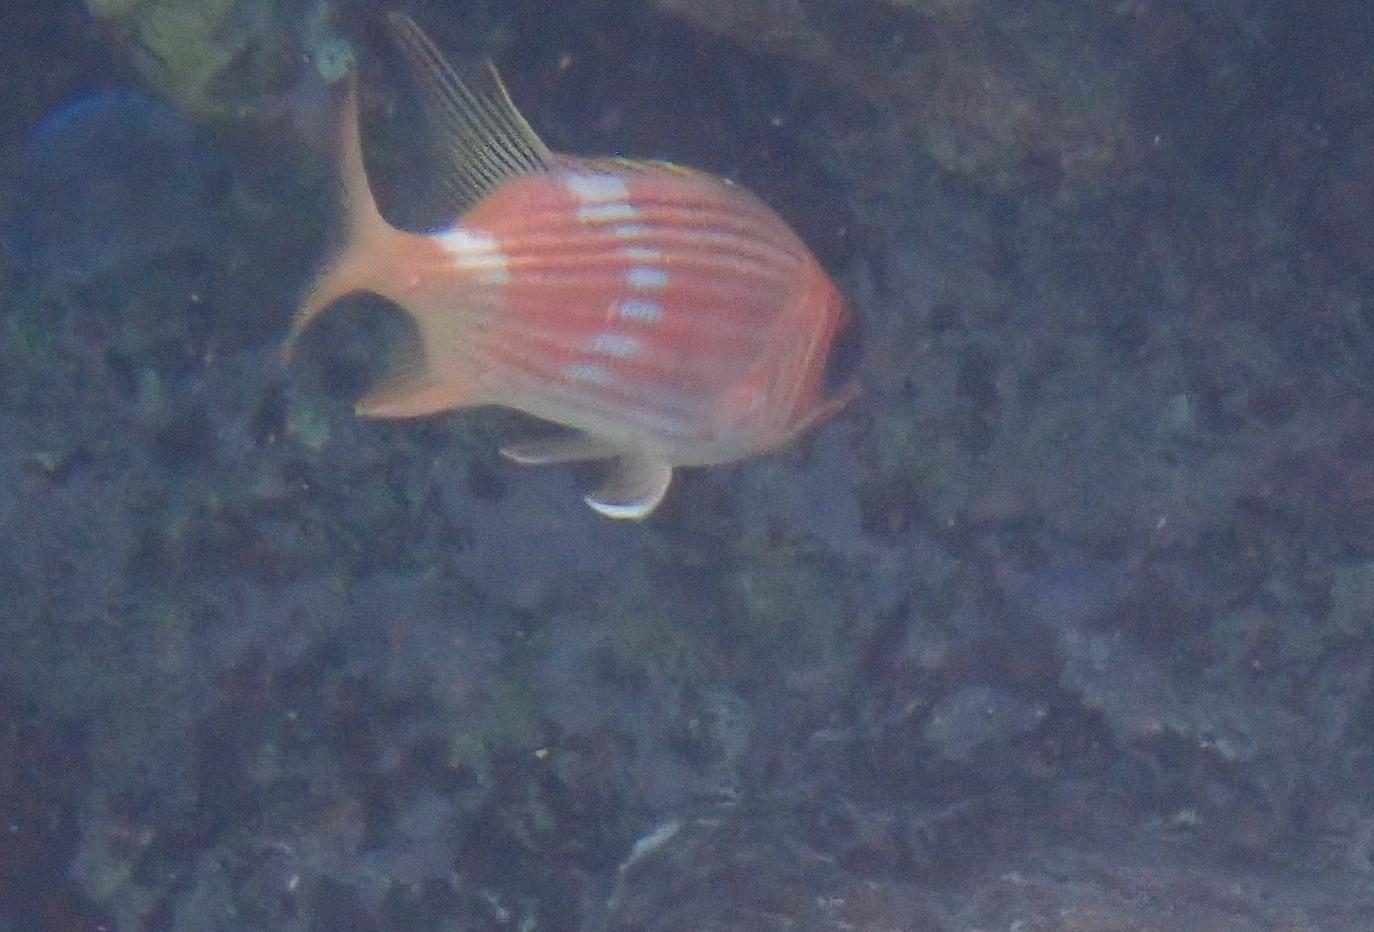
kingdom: Animalia
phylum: Chordata
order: Beryciformes
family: Holocentridae
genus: Holocentrus
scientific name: Holocentrus rufus
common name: Longspine squirrelfish
